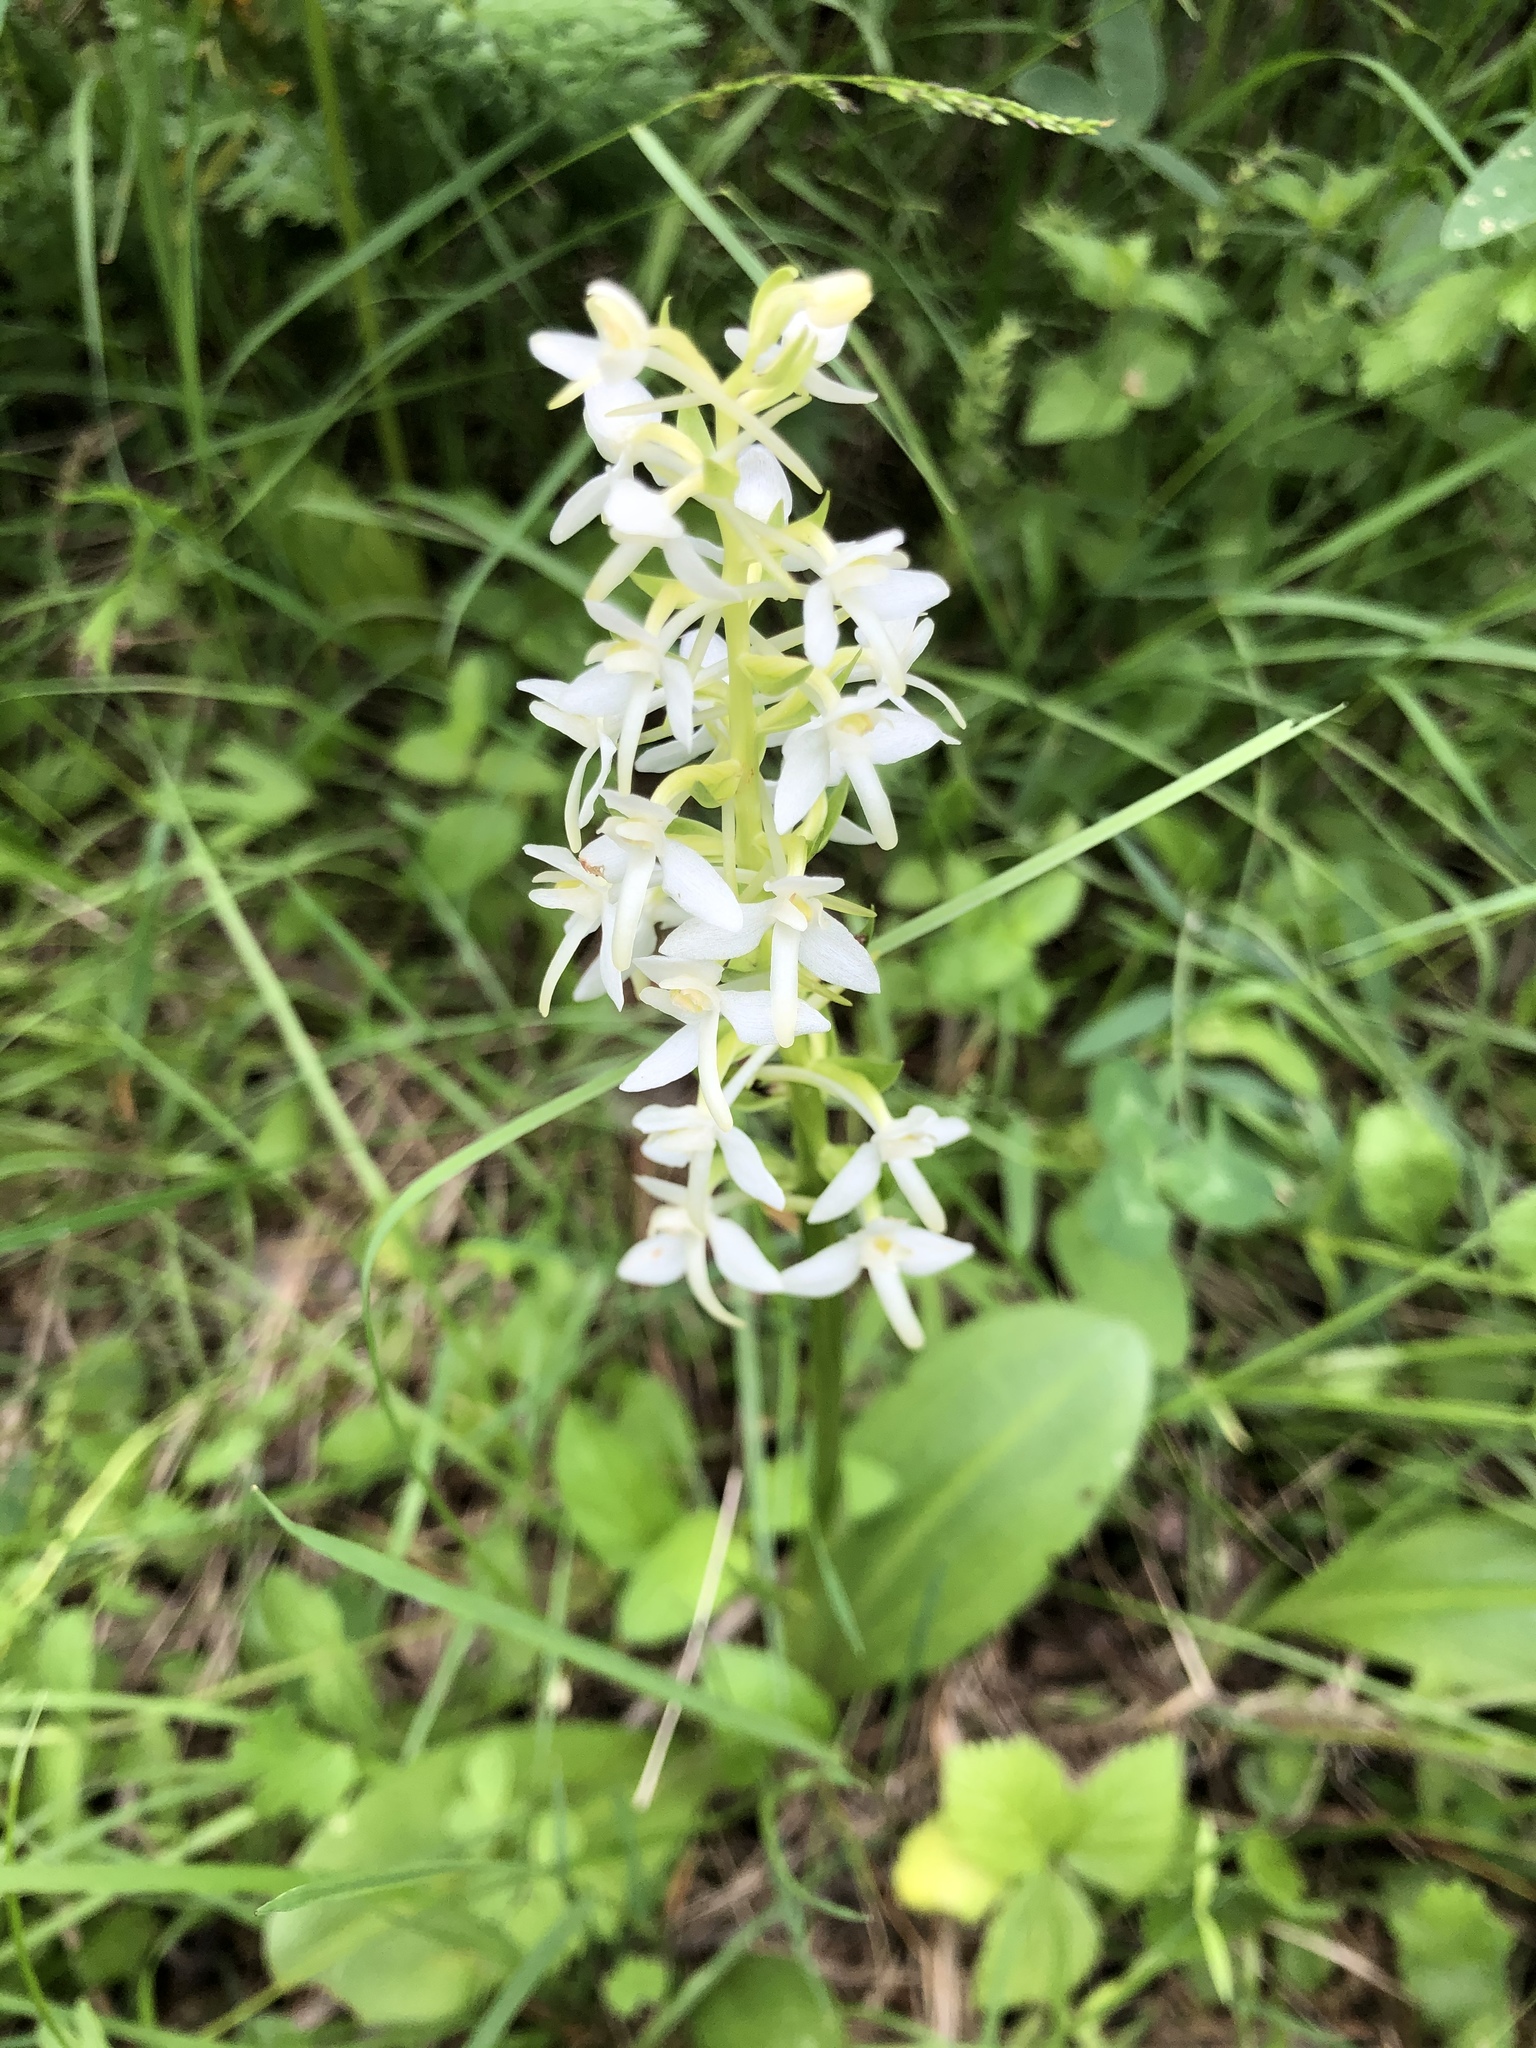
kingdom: Plantae
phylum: Tracheophyta
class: Liliopsida
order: Asparagales
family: Orchidaceae
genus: Platanthera
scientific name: Platanthera bifolia
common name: Lesser butterfly-orchid
